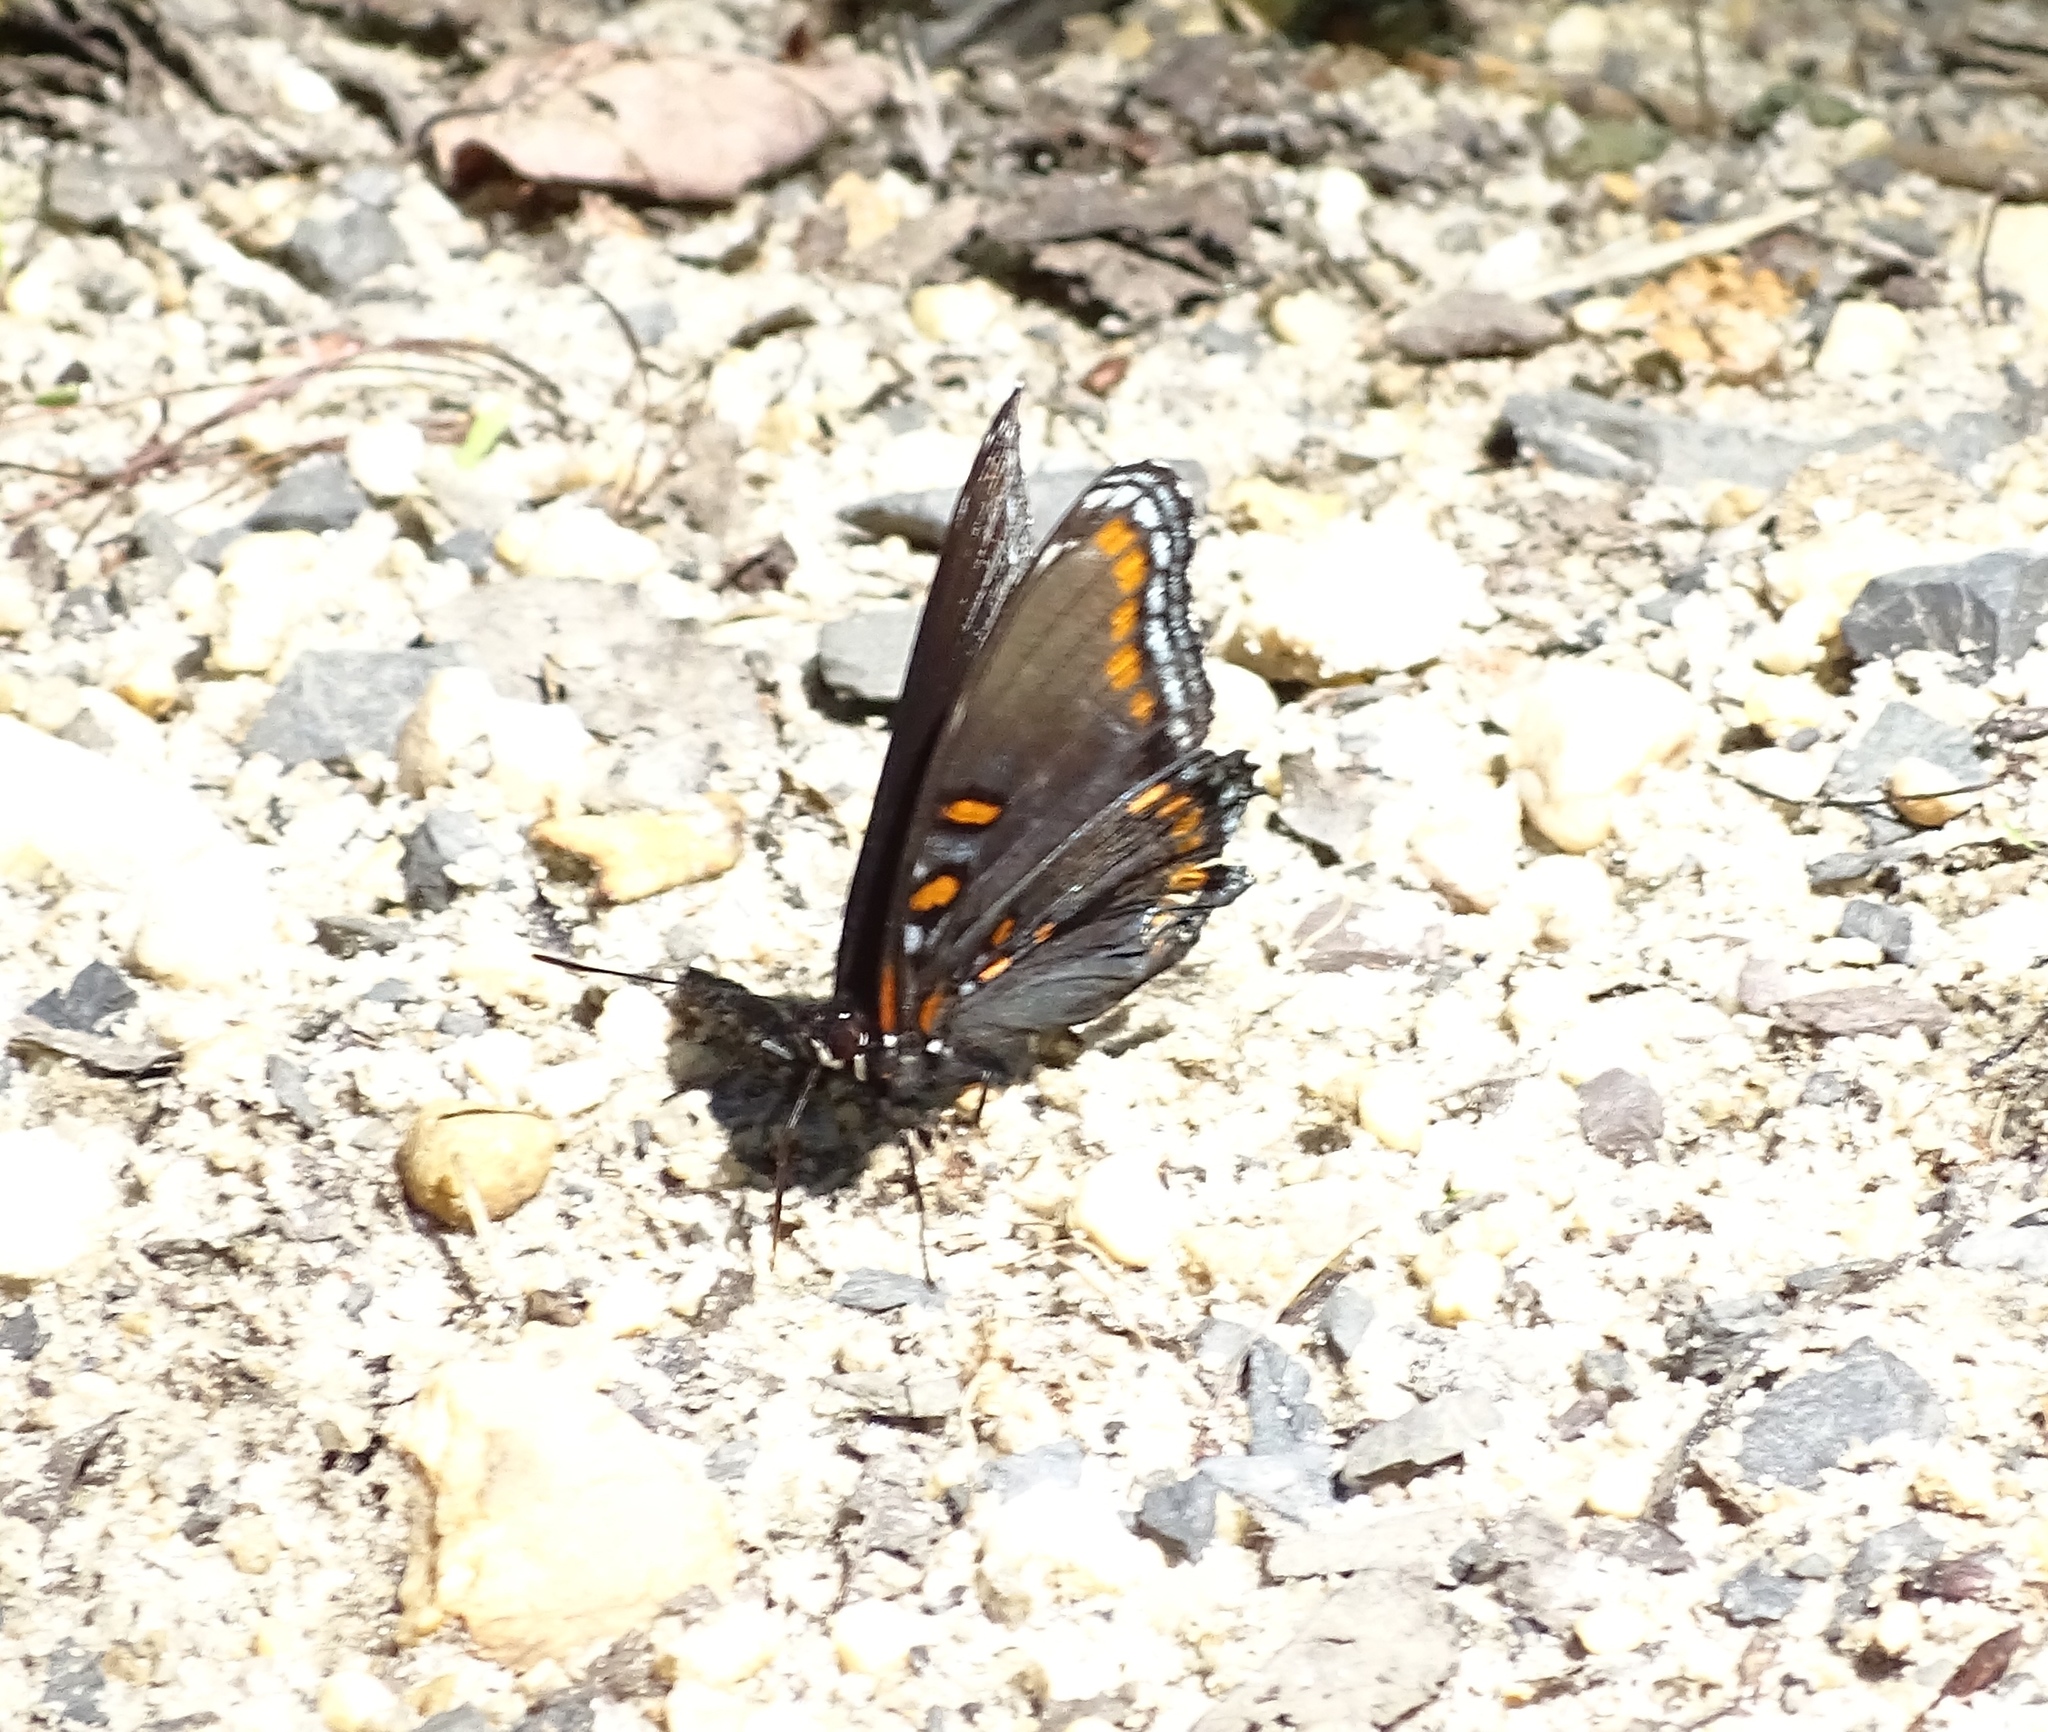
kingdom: Animalia
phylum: Arthropoda
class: Insecta
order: Lepidoptera
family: Nymphalidae
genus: Limenitis
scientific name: Limenitis arthemis
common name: Red-spotted admiral
